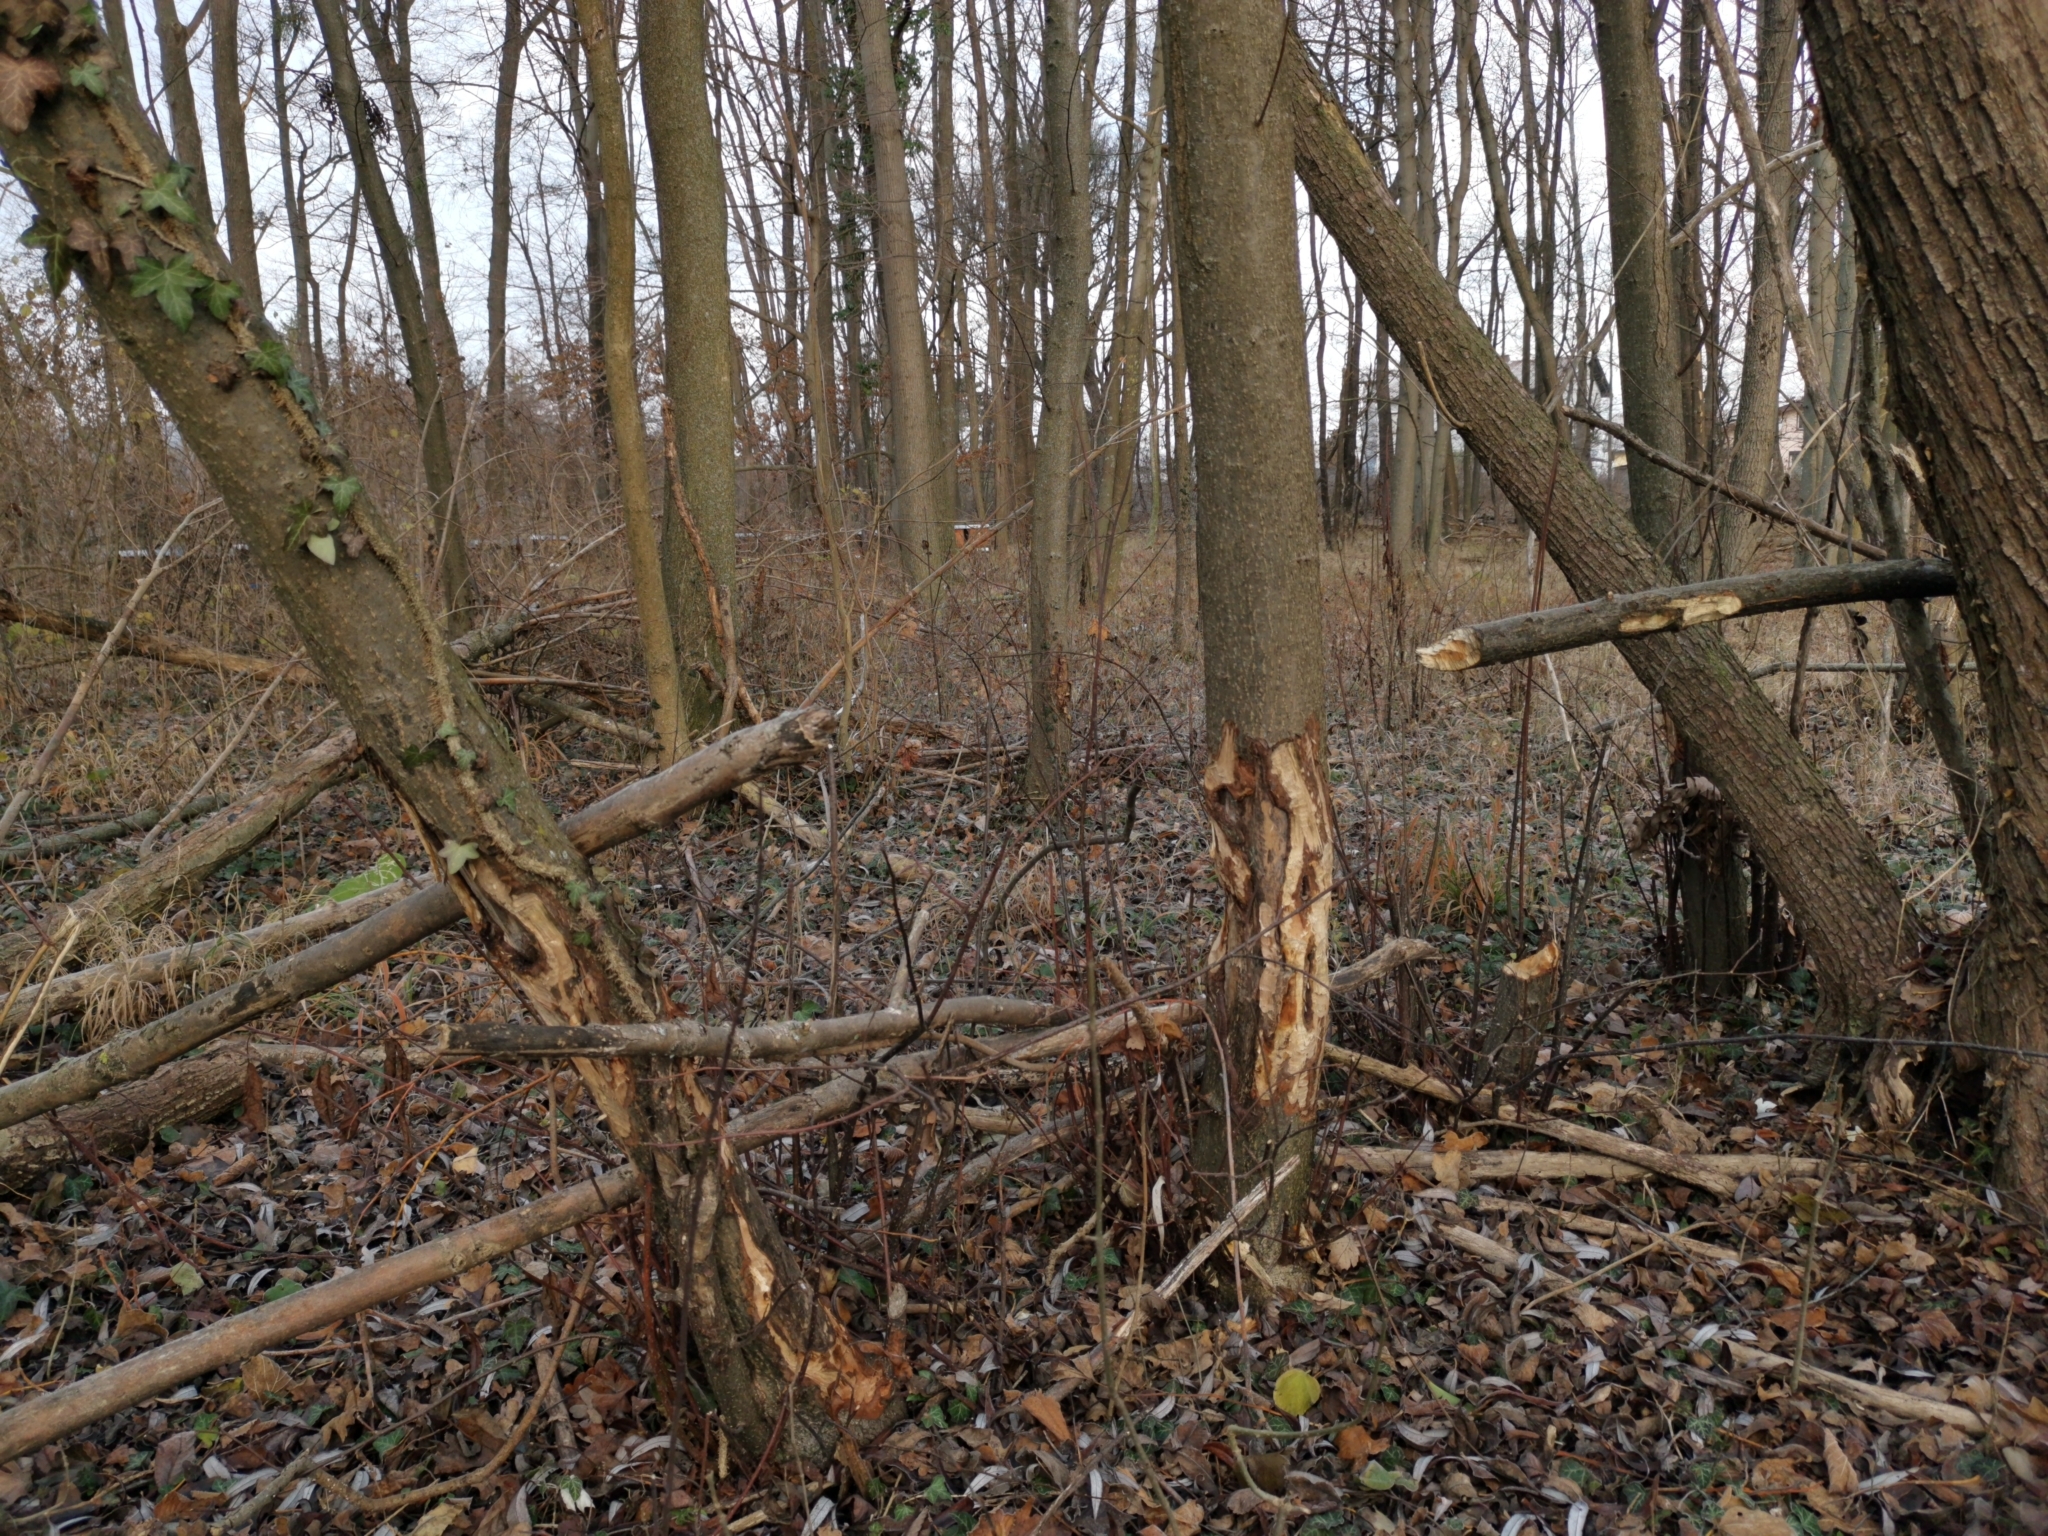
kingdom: Animalia
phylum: Chordata
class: Mammalia
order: Rodentia
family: Castoridae
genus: Castor
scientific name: Castor fiber
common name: Eurasian beaver
